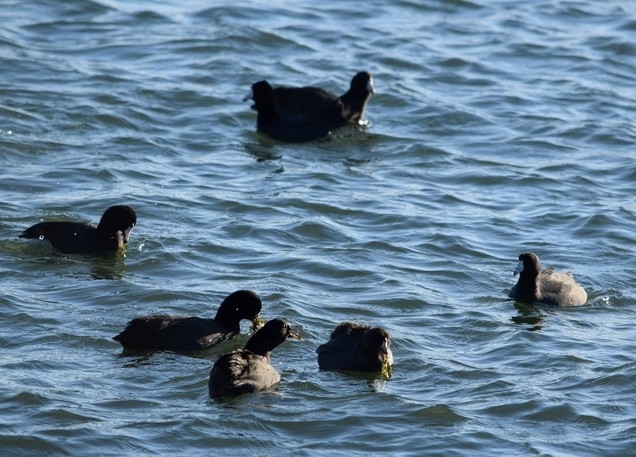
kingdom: Animalia
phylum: Chordata
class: Aves
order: Gruiformes
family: Rallidae
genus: Fulica
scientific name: Fulica americana
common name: American coot
